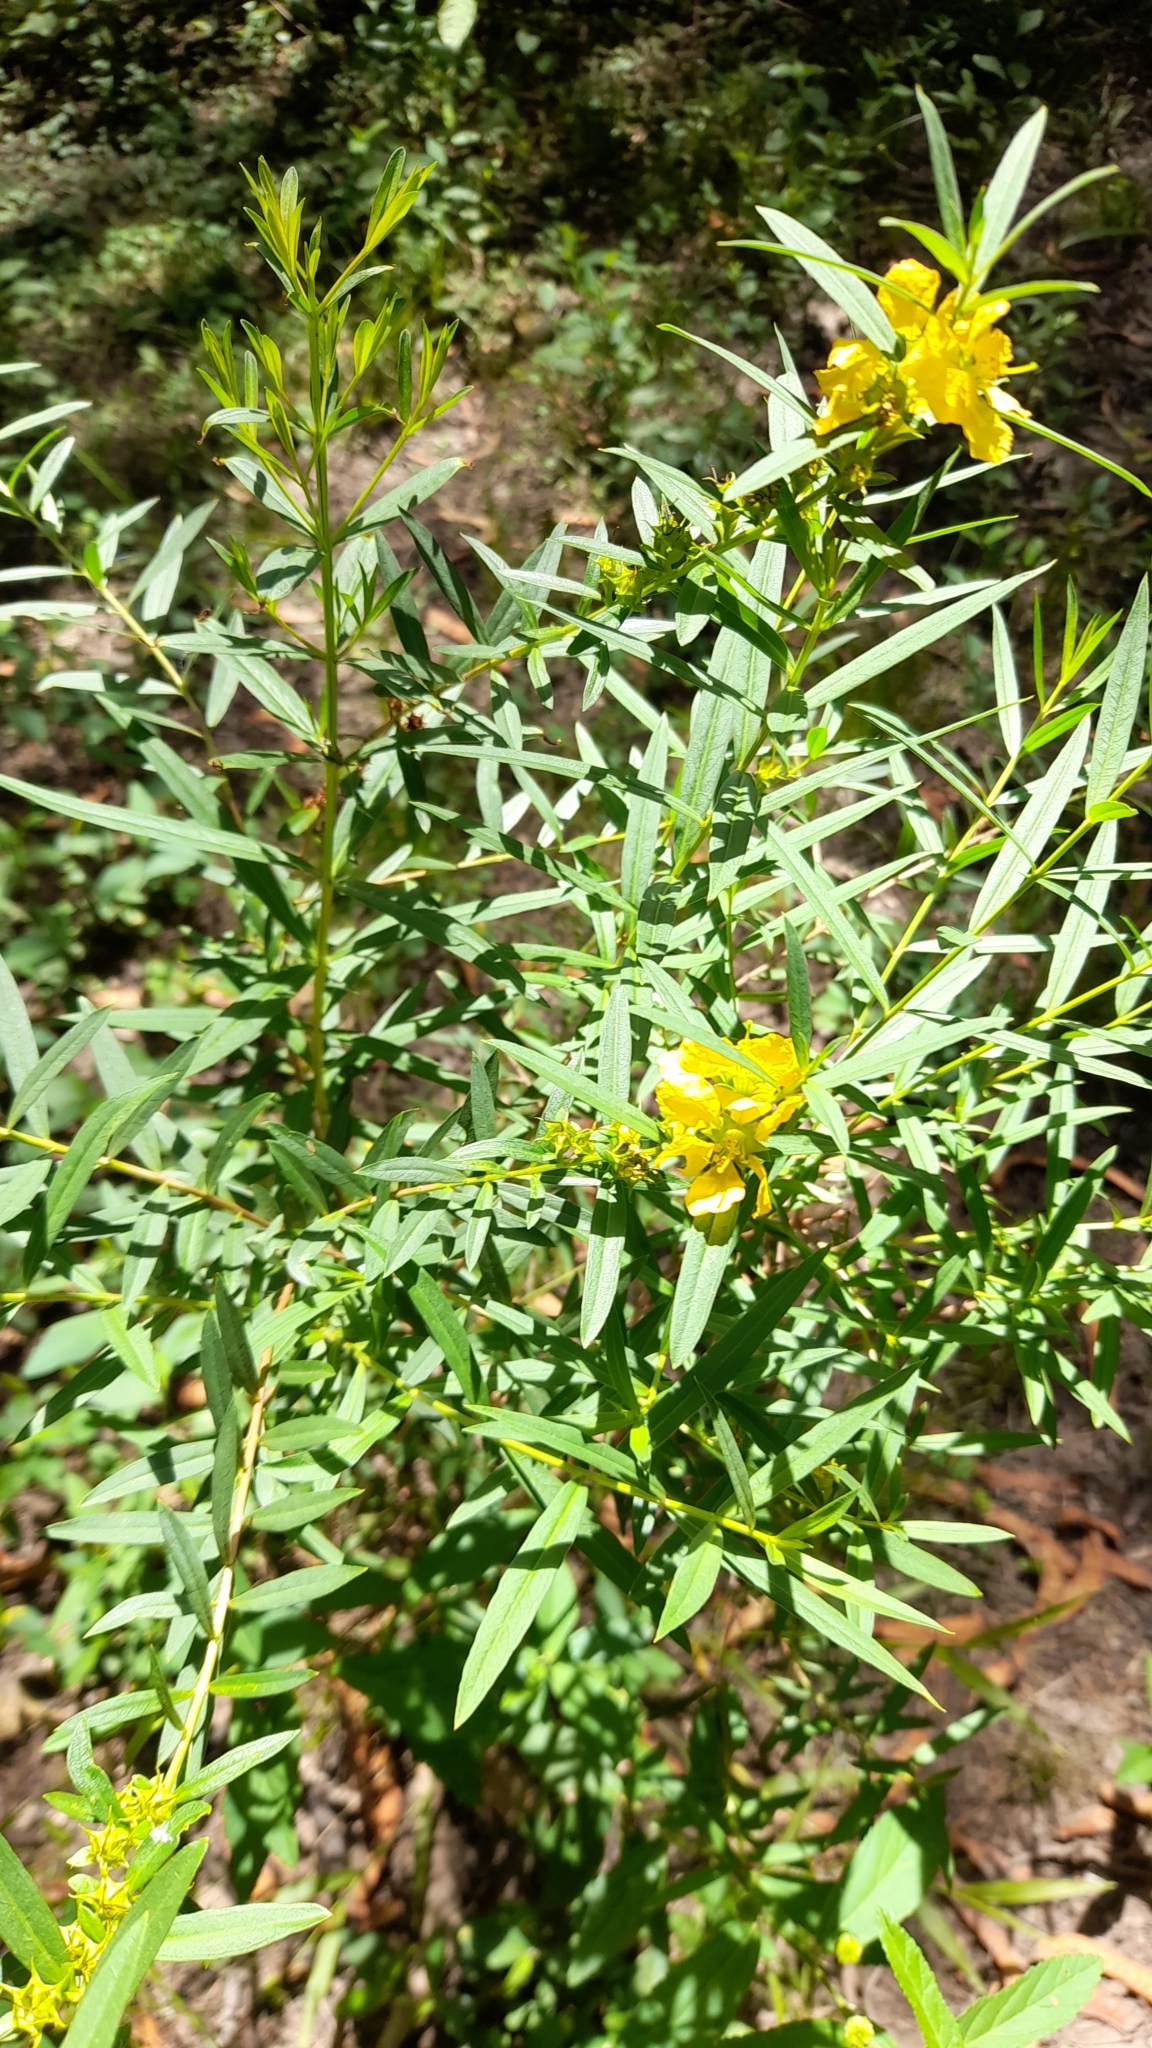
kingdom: Plantae
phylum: Tracheophyta
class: Magnoliopsida
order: Myrtales
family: Lythraceae
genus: Heimia
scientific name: Heimia salicifolia
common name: Willow-leaf heimia
